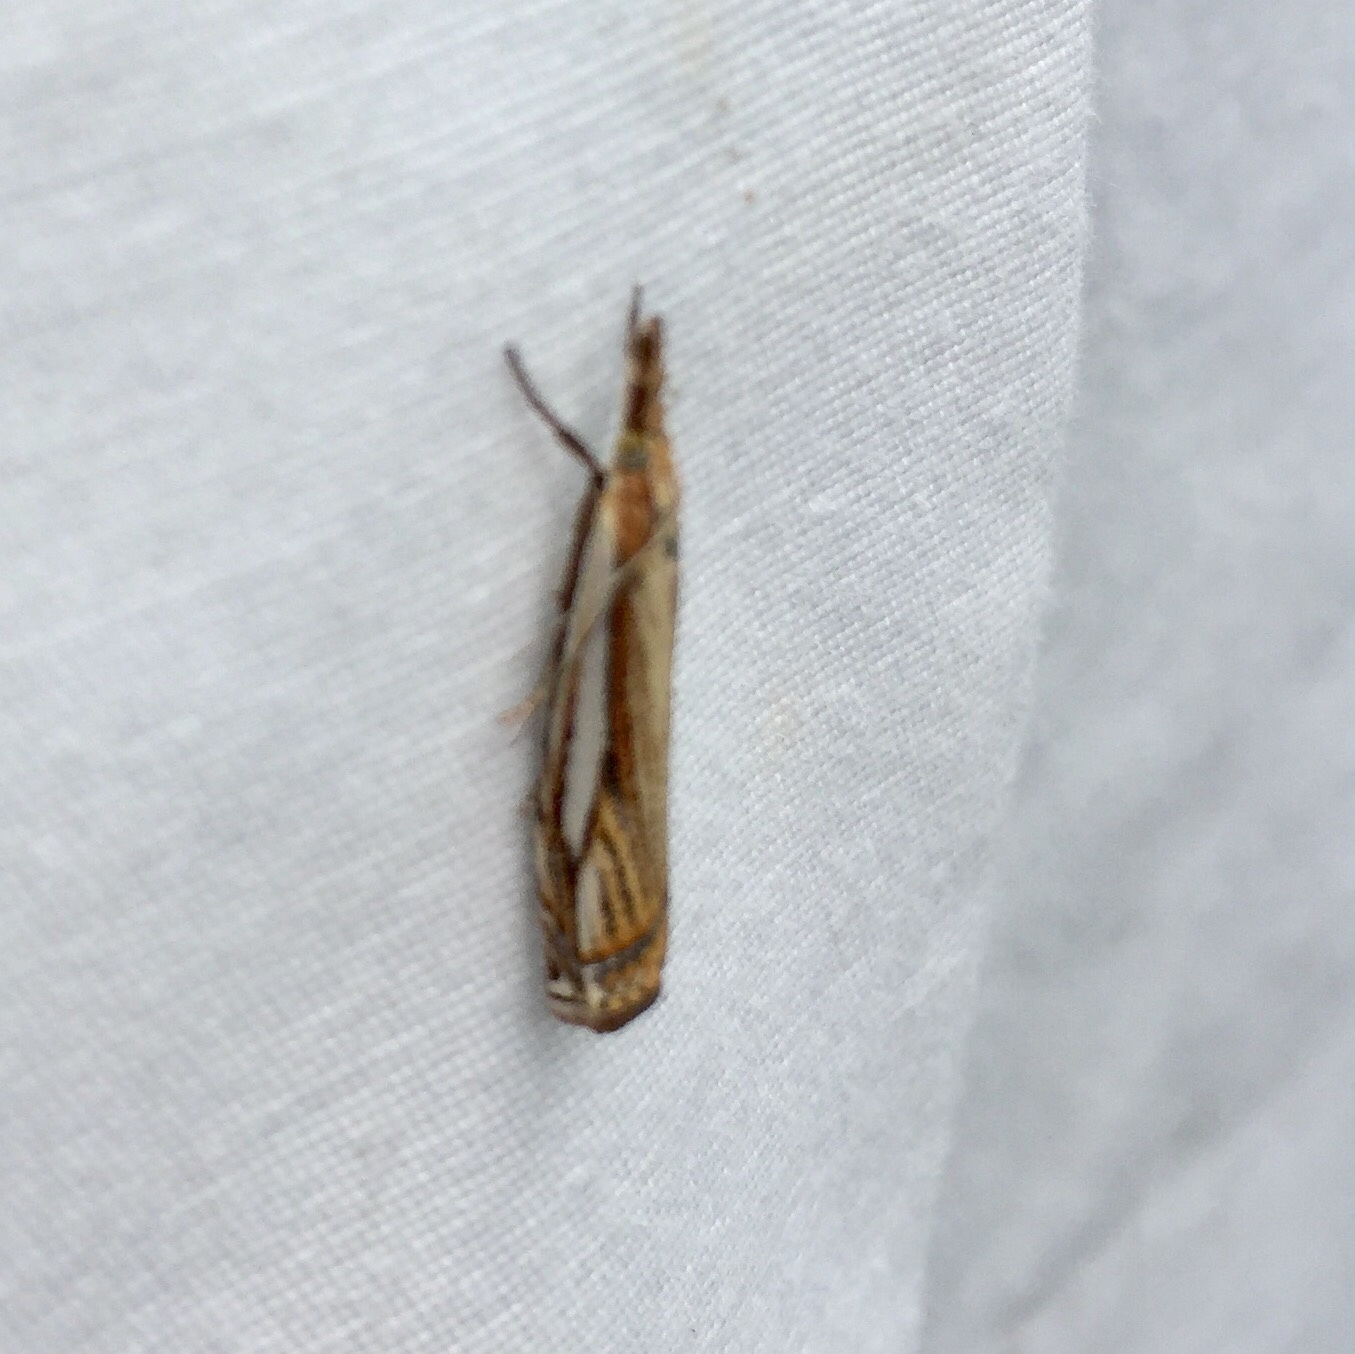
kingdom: Animalia
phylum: Arthropoda
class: Insecta
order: Lepidoptera
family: Crambidae
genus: Crambus
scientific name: Crambus agitatellus
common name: Double-banded grass-veneer
